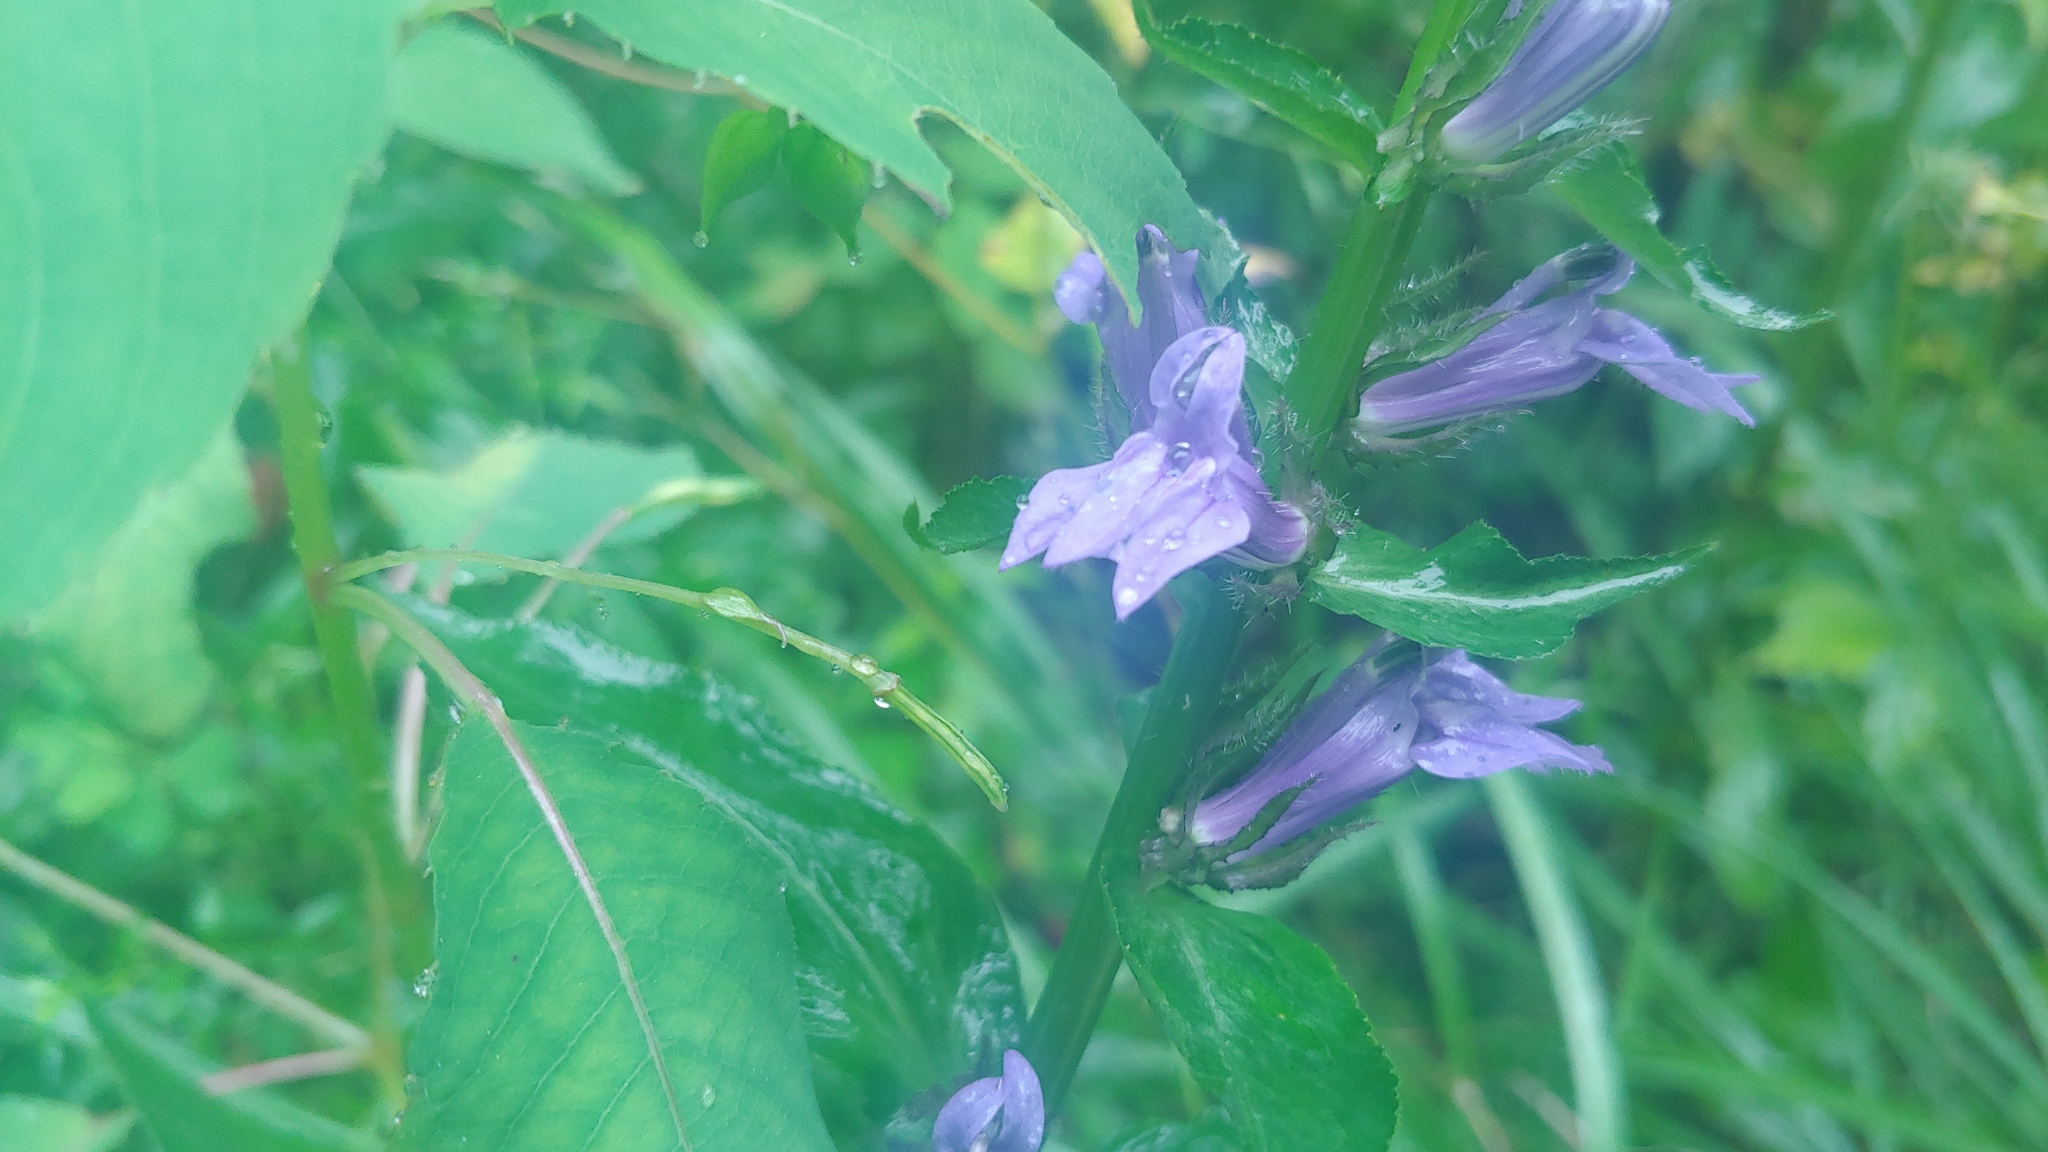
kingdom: Plantae
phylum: Tracheophyta
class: Magnoliopsida
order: Asterales
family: Campanulaceae
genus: Lobelia
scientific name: Lobelia siphilitica
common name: Great lobelia
